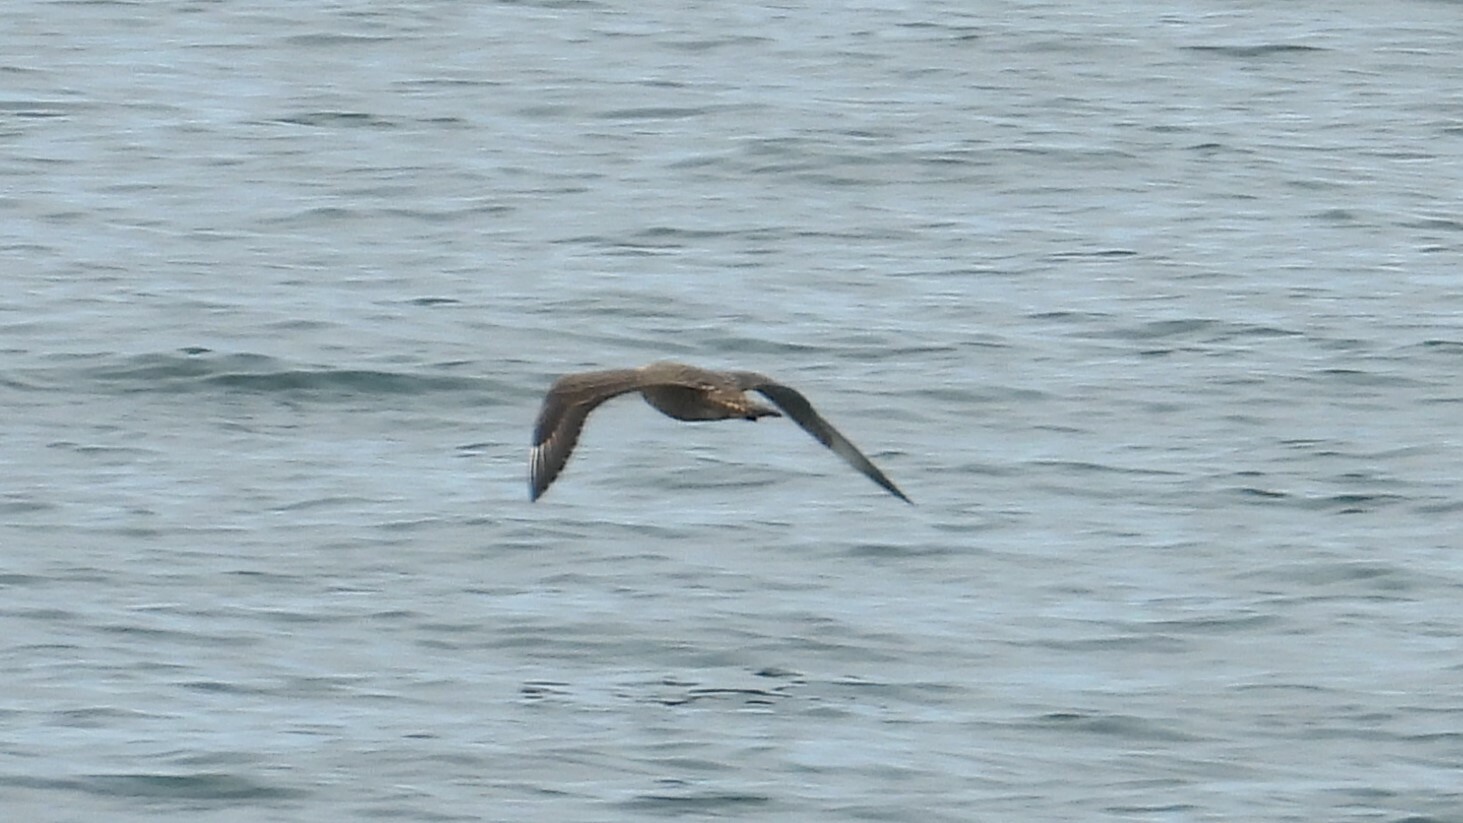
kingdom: Animalia
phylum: Chordata
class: Aves
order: Charadriiformes
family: Stercorariidae
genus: Stercorarius
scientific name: Stercorarius parasiticus
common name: Parasitic jaeger
